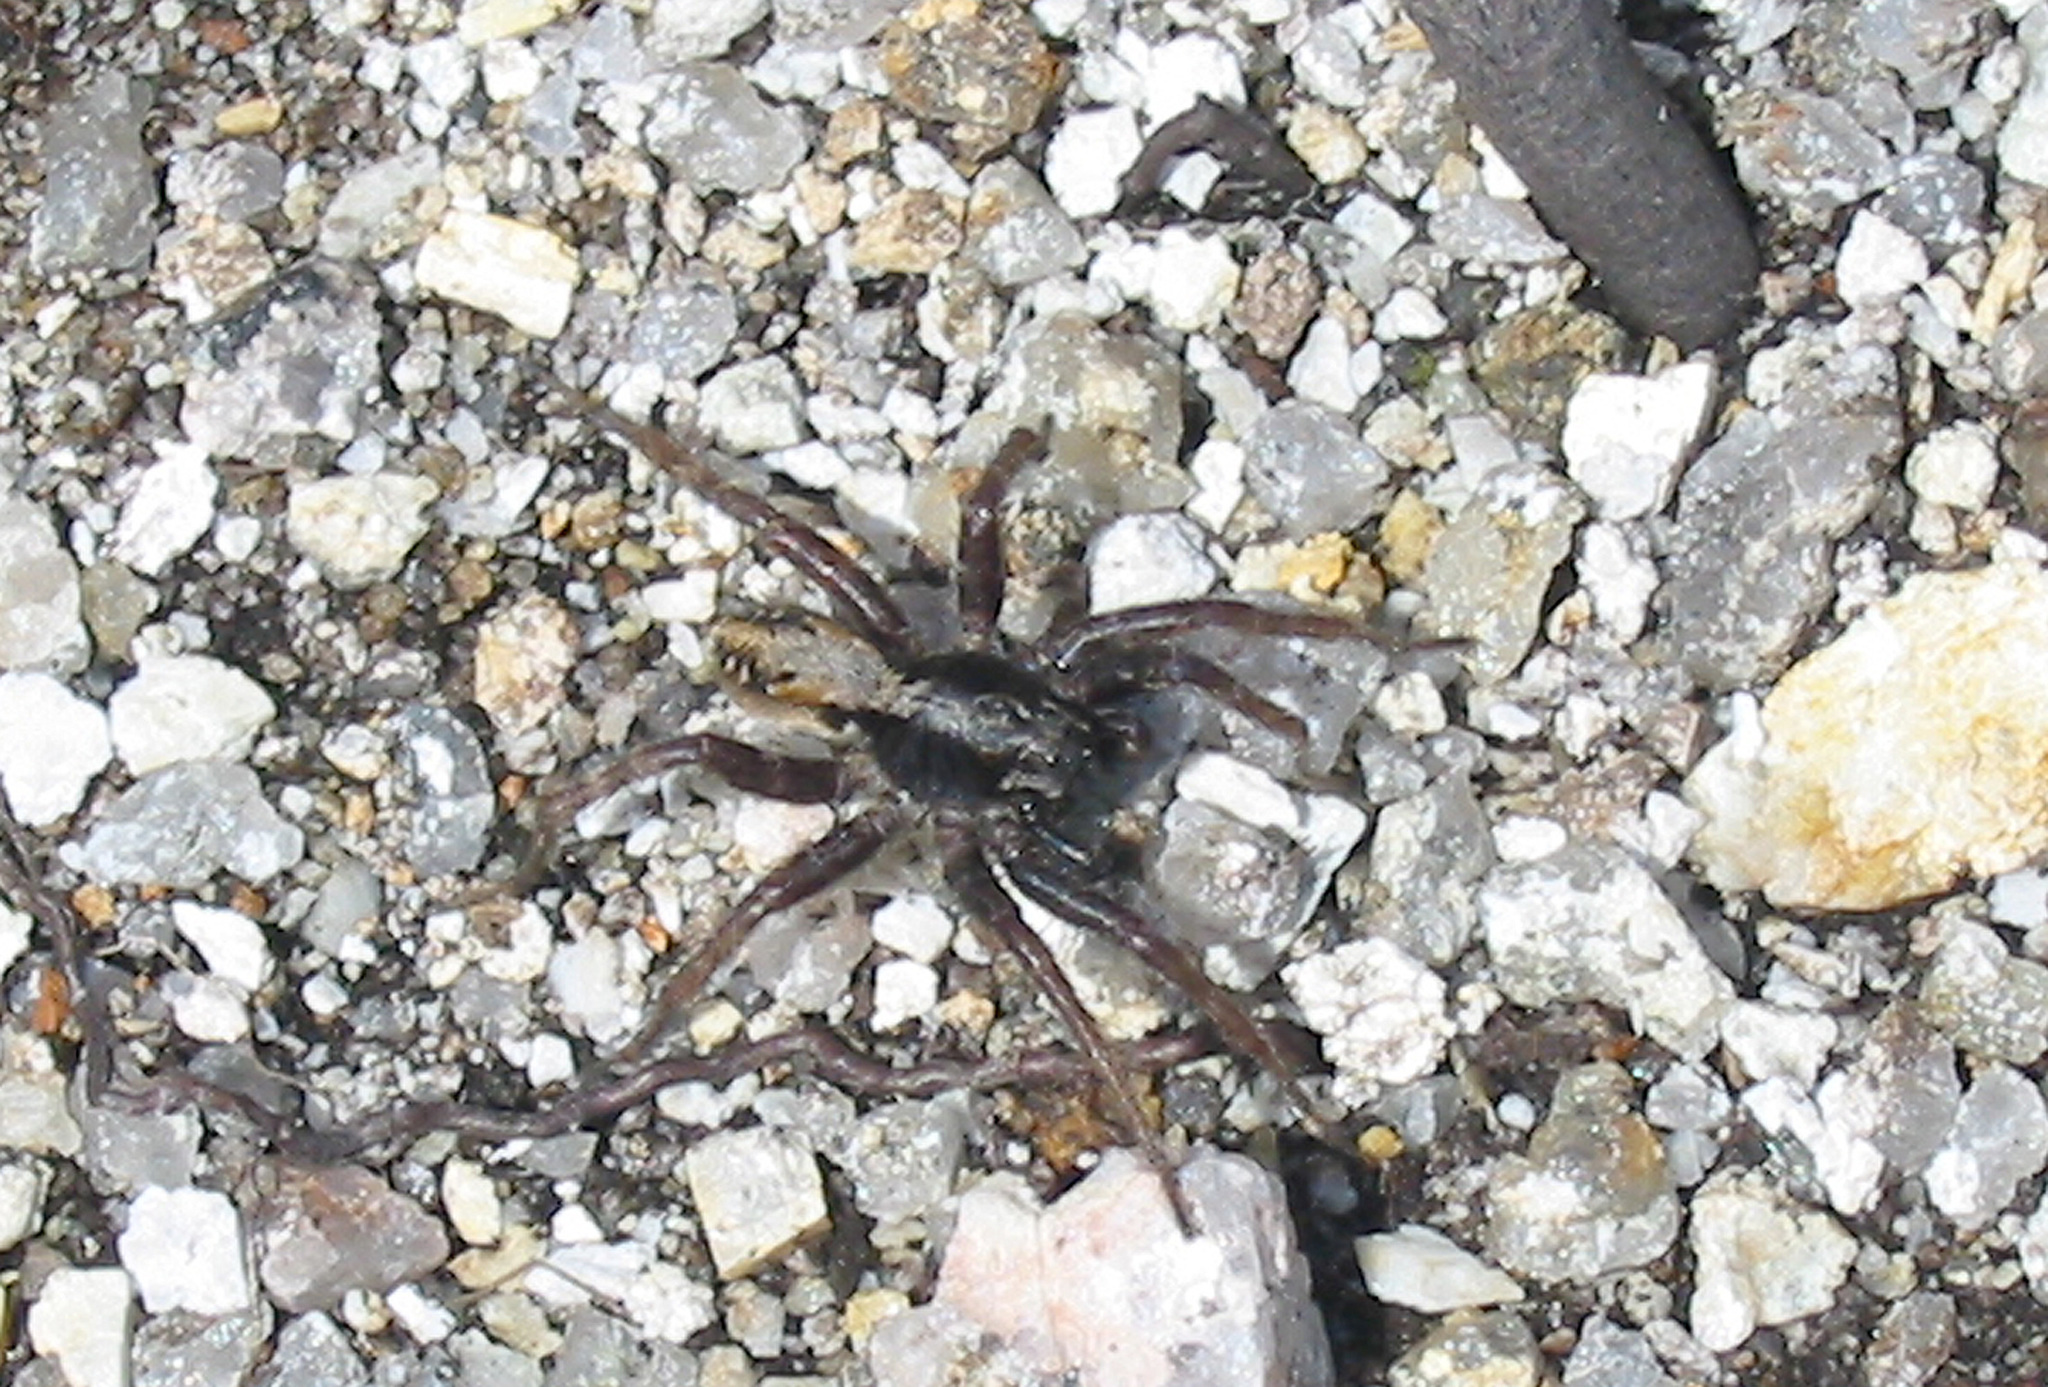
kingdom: Animalia
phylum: Arthropoda
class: Arachnida
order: Araneae
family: Lycosidae
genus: Alopecosa
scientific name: Alopecosa pictilis
